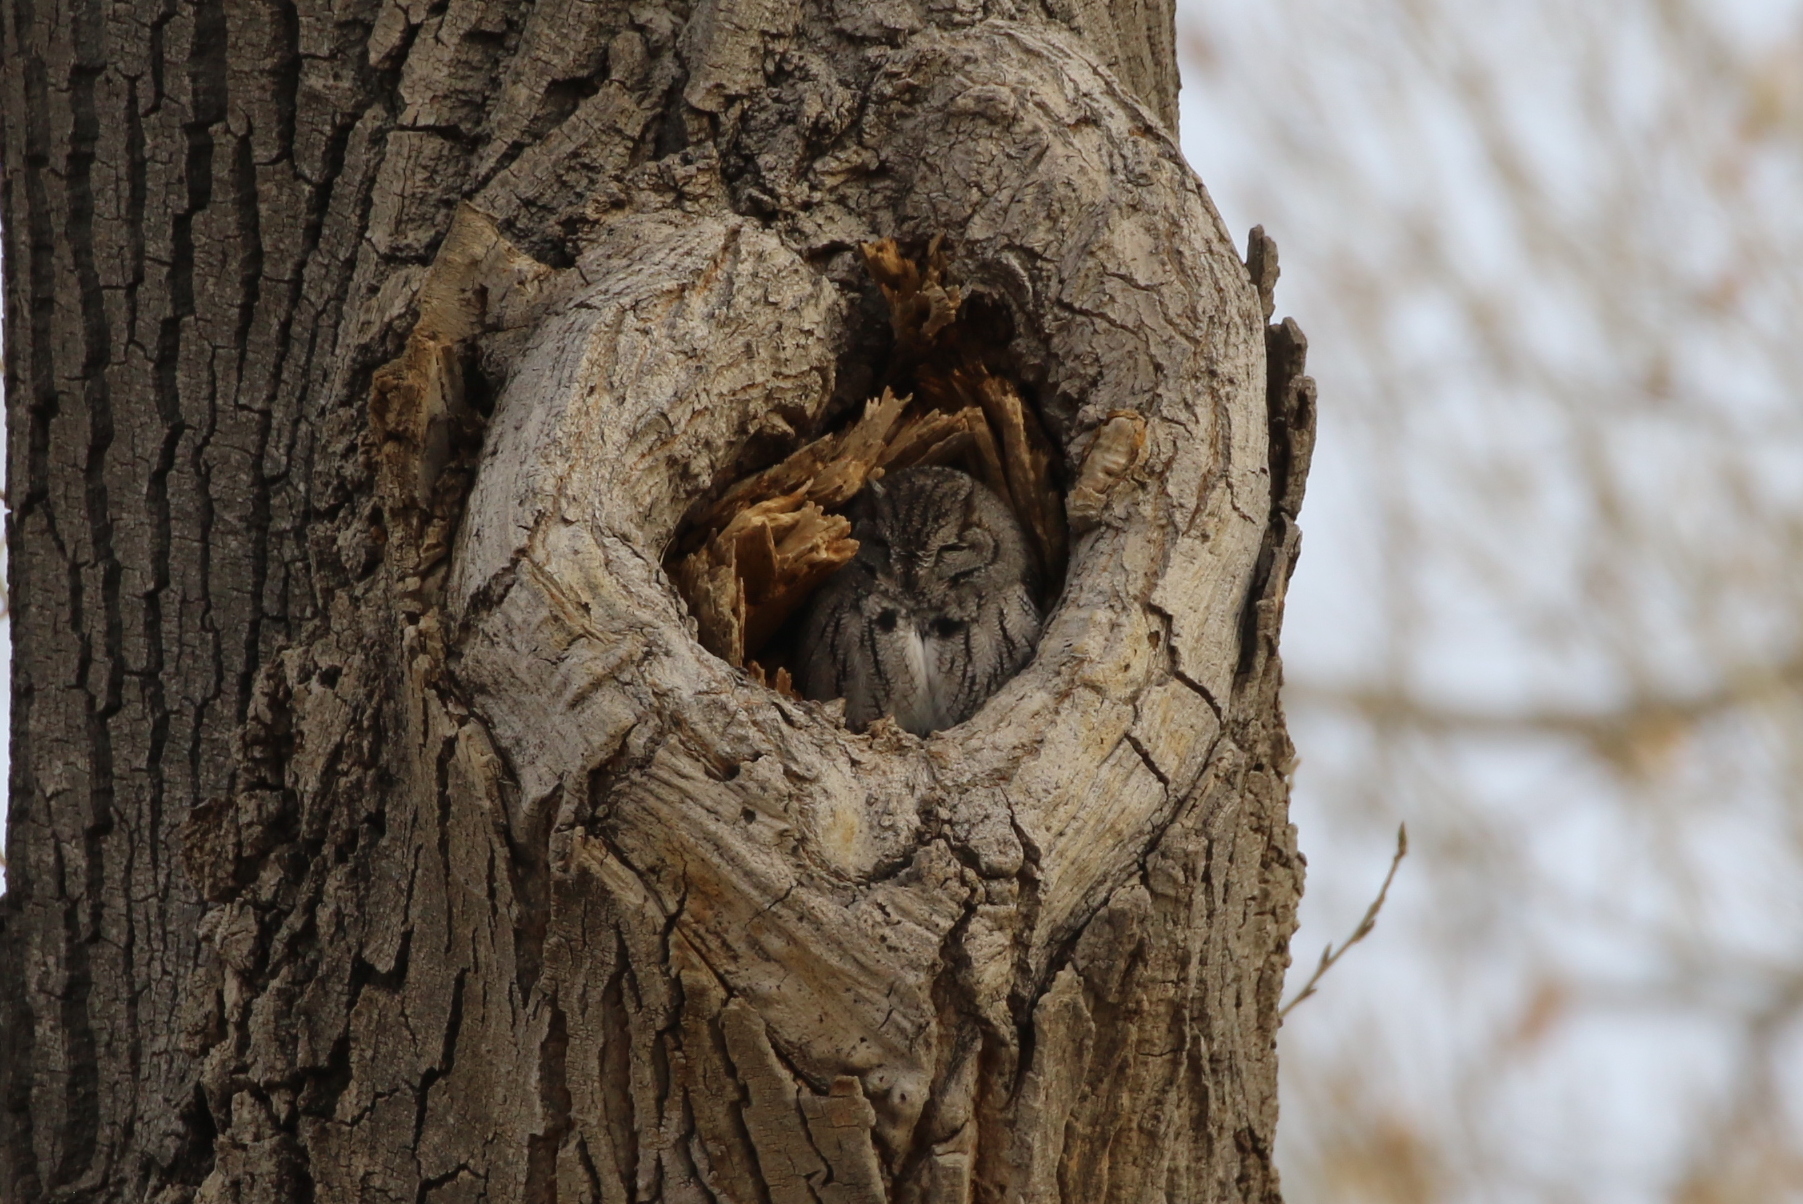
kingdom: Animalia
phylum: Chordata
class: Aves
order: Strigiformes
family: Strigidae
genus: Megascops
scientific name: Megascops kennicottii
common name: Western screech-owl
